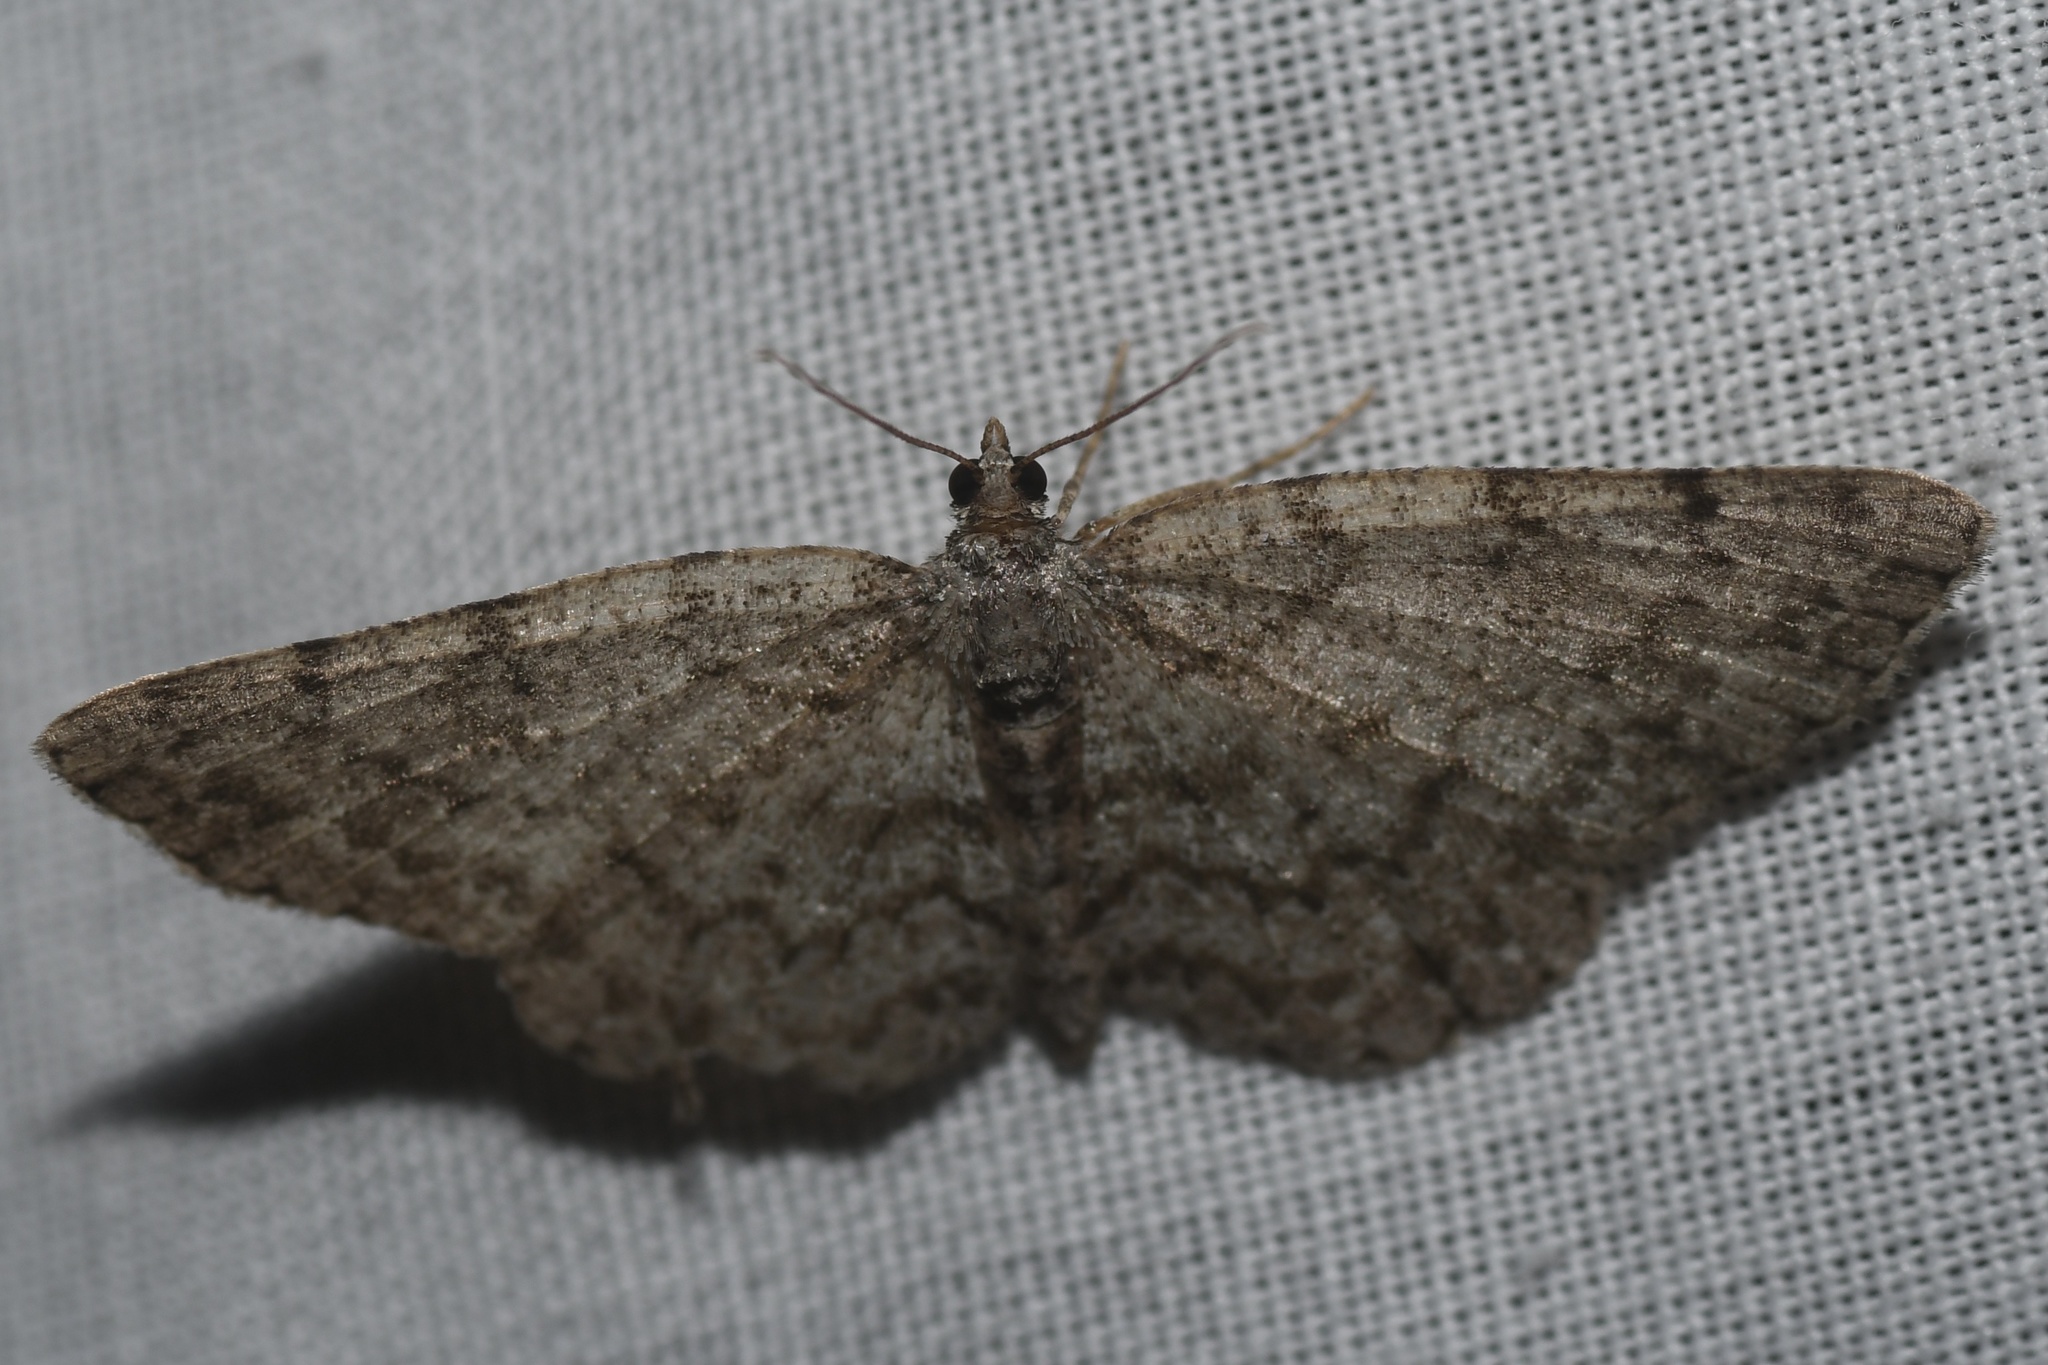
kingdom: Animalia
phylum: Arthropoda
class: Insecta
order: Lepidoptera
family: Geometridae
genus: Protoboarmia
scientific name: Protoboarmia porcelaria
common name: Porcelain gray
